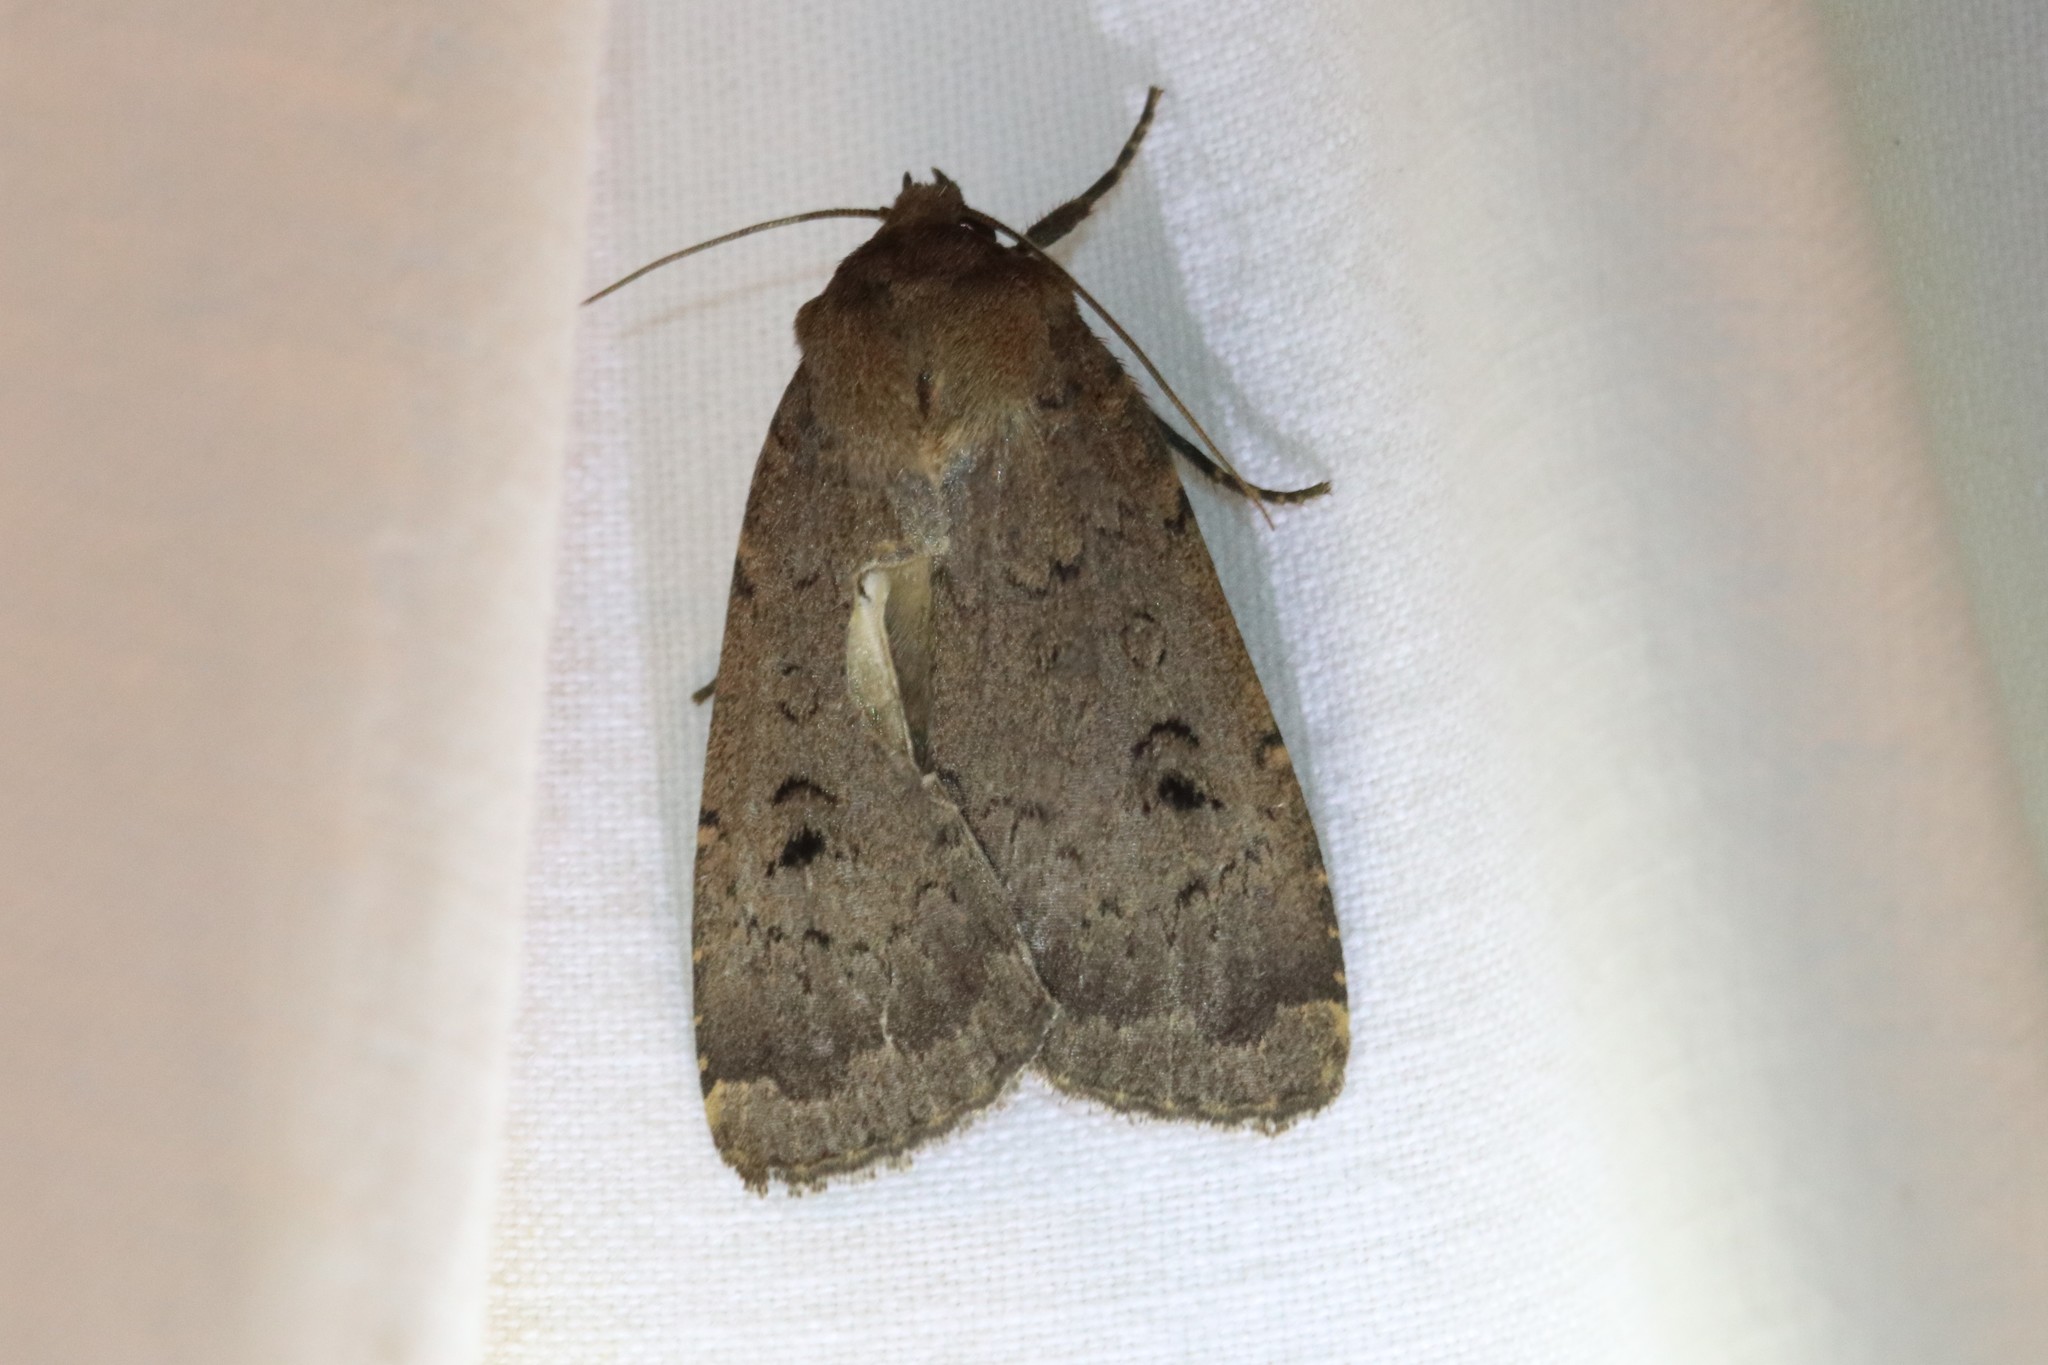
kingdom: Animalia
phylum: Arthropoda
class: Insecta
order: Lepidoptera
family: Noctuidae
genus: Graphiphora
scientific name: Graphiphora augur
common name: Double dart
